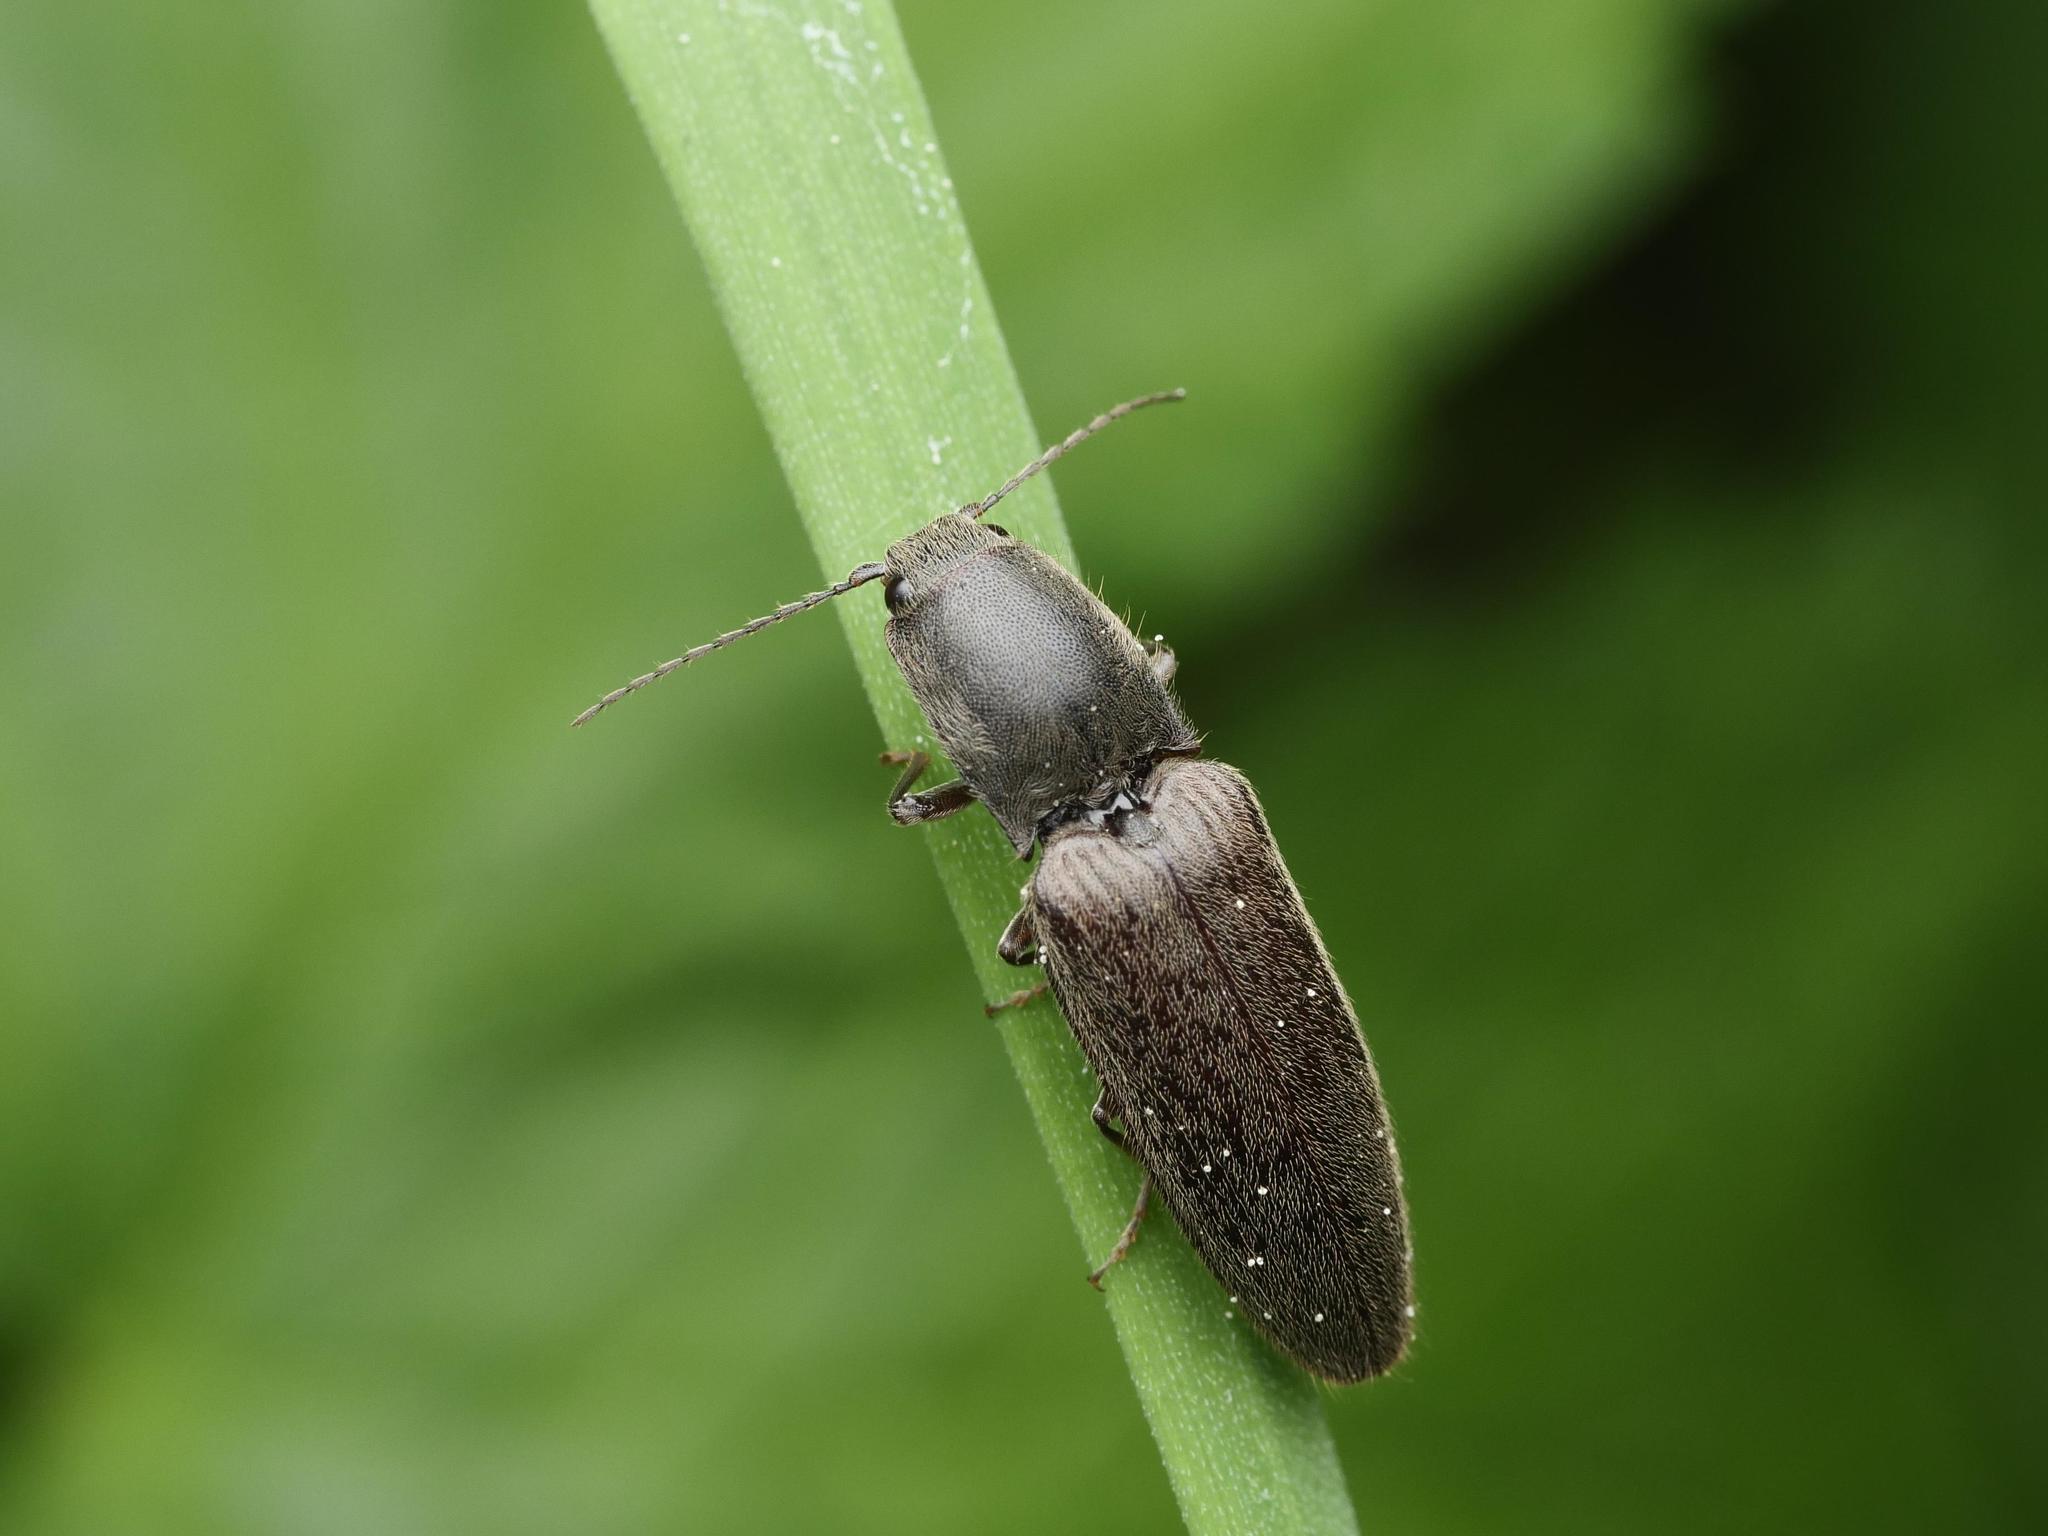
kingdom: Animalia
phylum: Arthropoda
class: Insecta
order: Coleoptera
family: Elateridae
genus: Athous
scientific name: Athous haemorrhoidalis
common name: Red-brown click beetle
